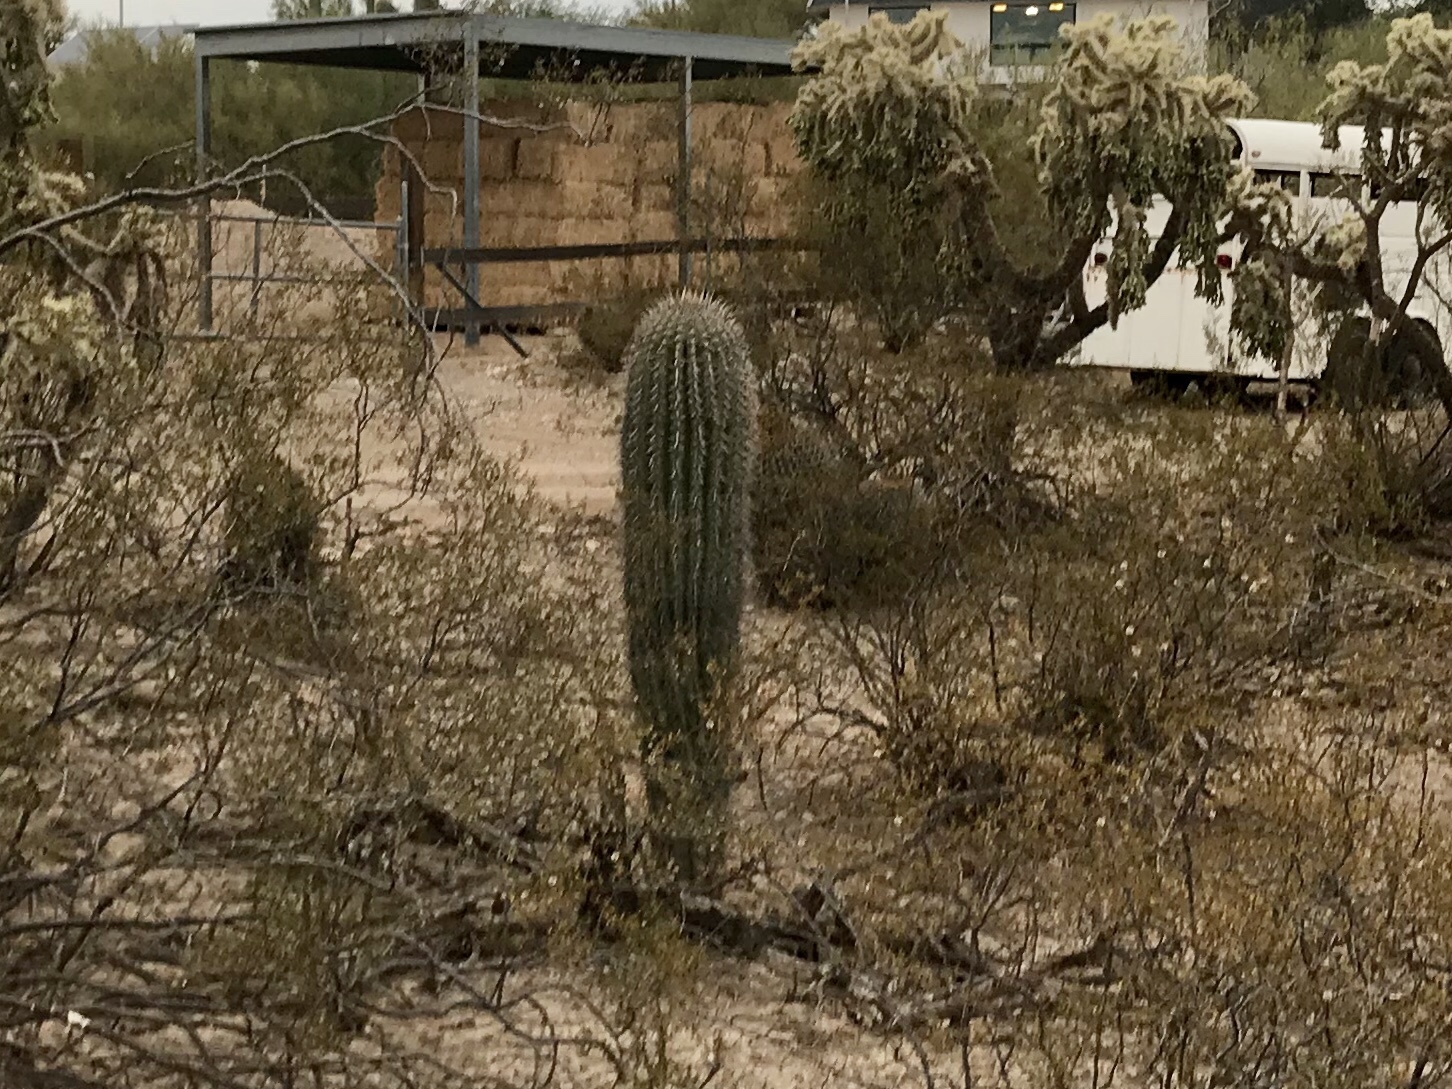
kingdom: Plantae
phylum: Tracheophyta
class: Magnoliopsida
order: Caryophyllales
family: Cactaceae
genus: Carnegiea
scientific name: Carnegiea gigantea
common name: Saguaro
